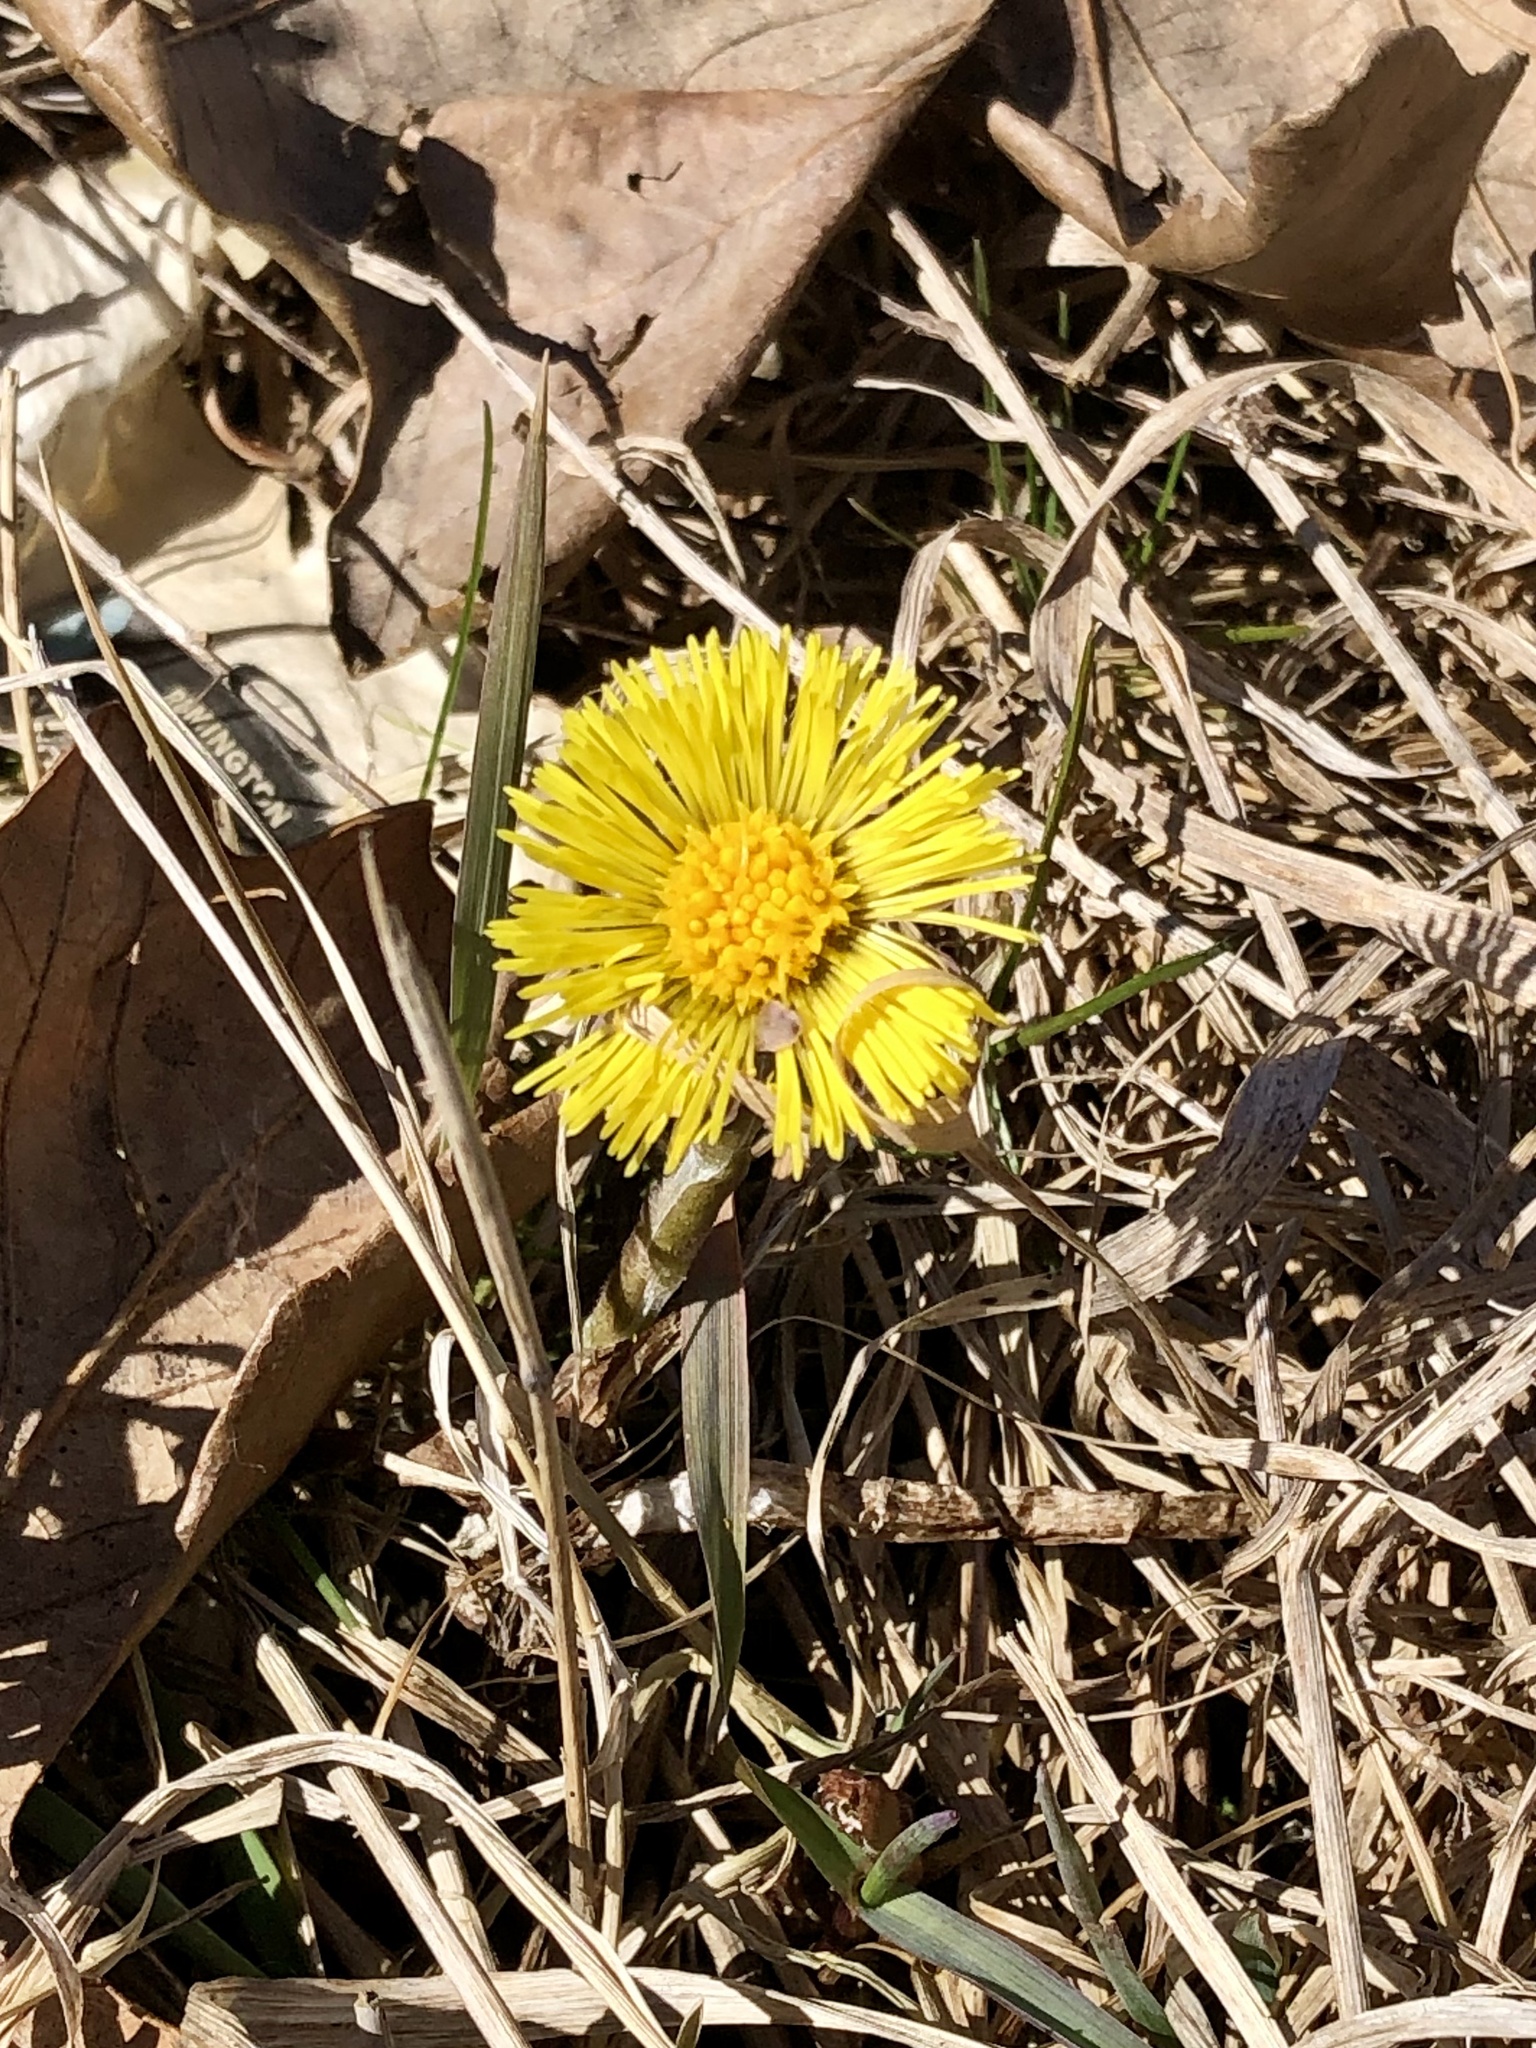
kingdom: Plantae
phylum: Tracheophyta
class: Magnoliopsida
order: Asterales
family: Asteraceae
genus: Tussilago
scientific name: Tussilago farfara
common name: Coltsfoot
